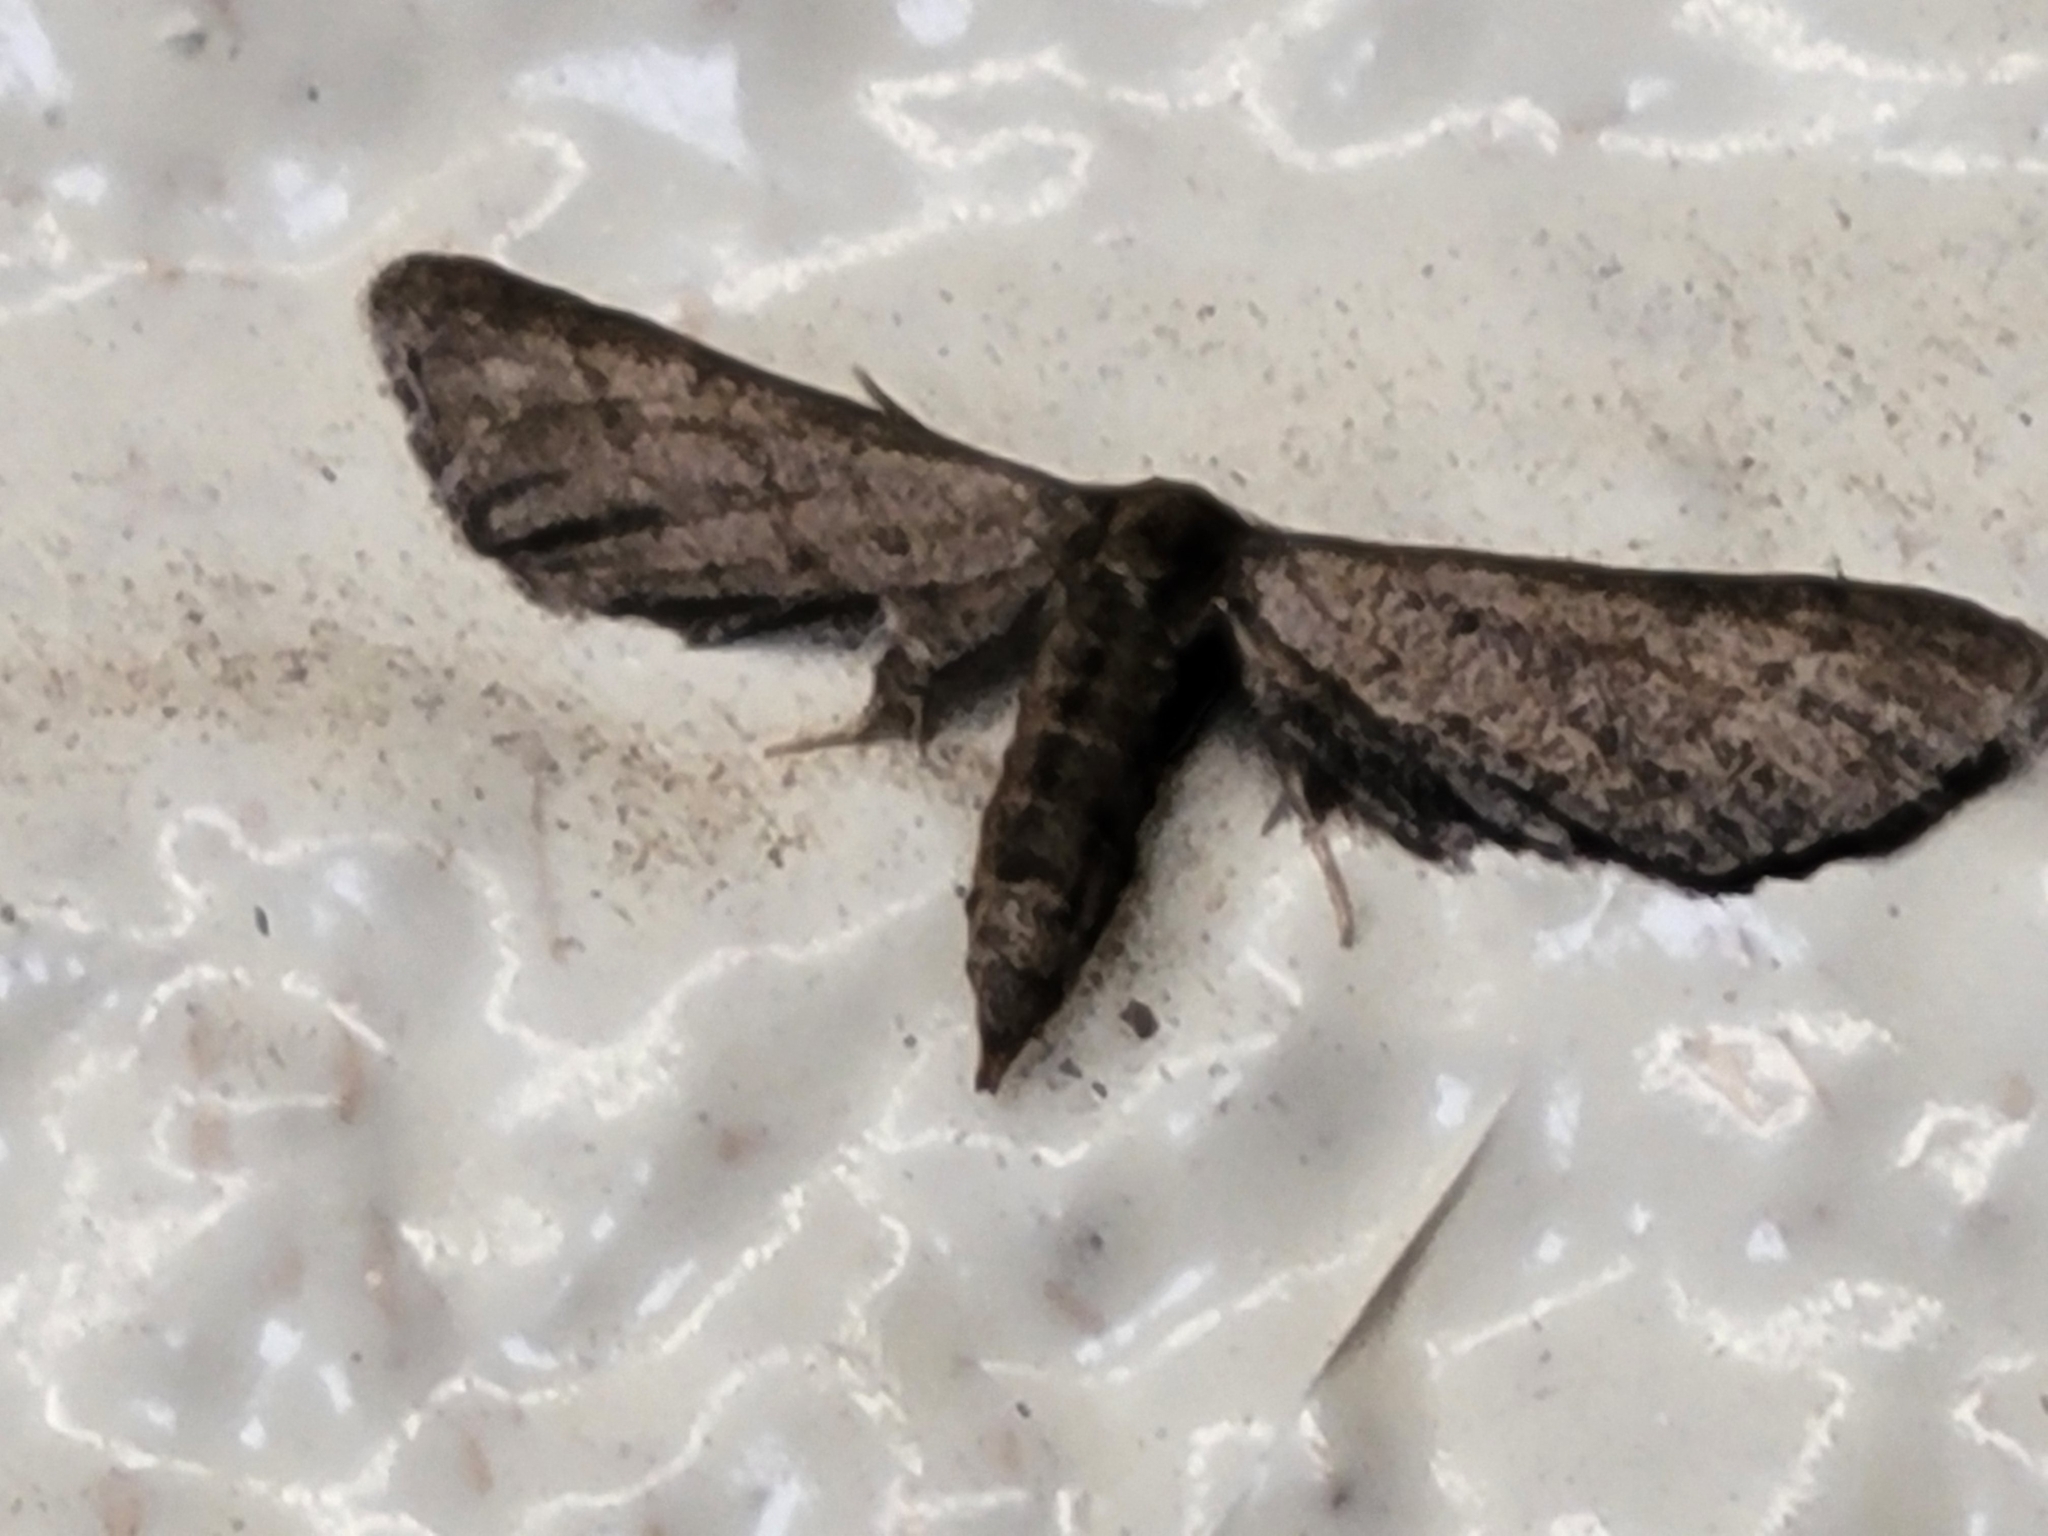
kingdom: Animalia
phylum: Arthropoda
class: Insecta
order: Lepidoptera
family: Geometridae
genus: Protoproutia
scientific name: Protoproutia laredoata
